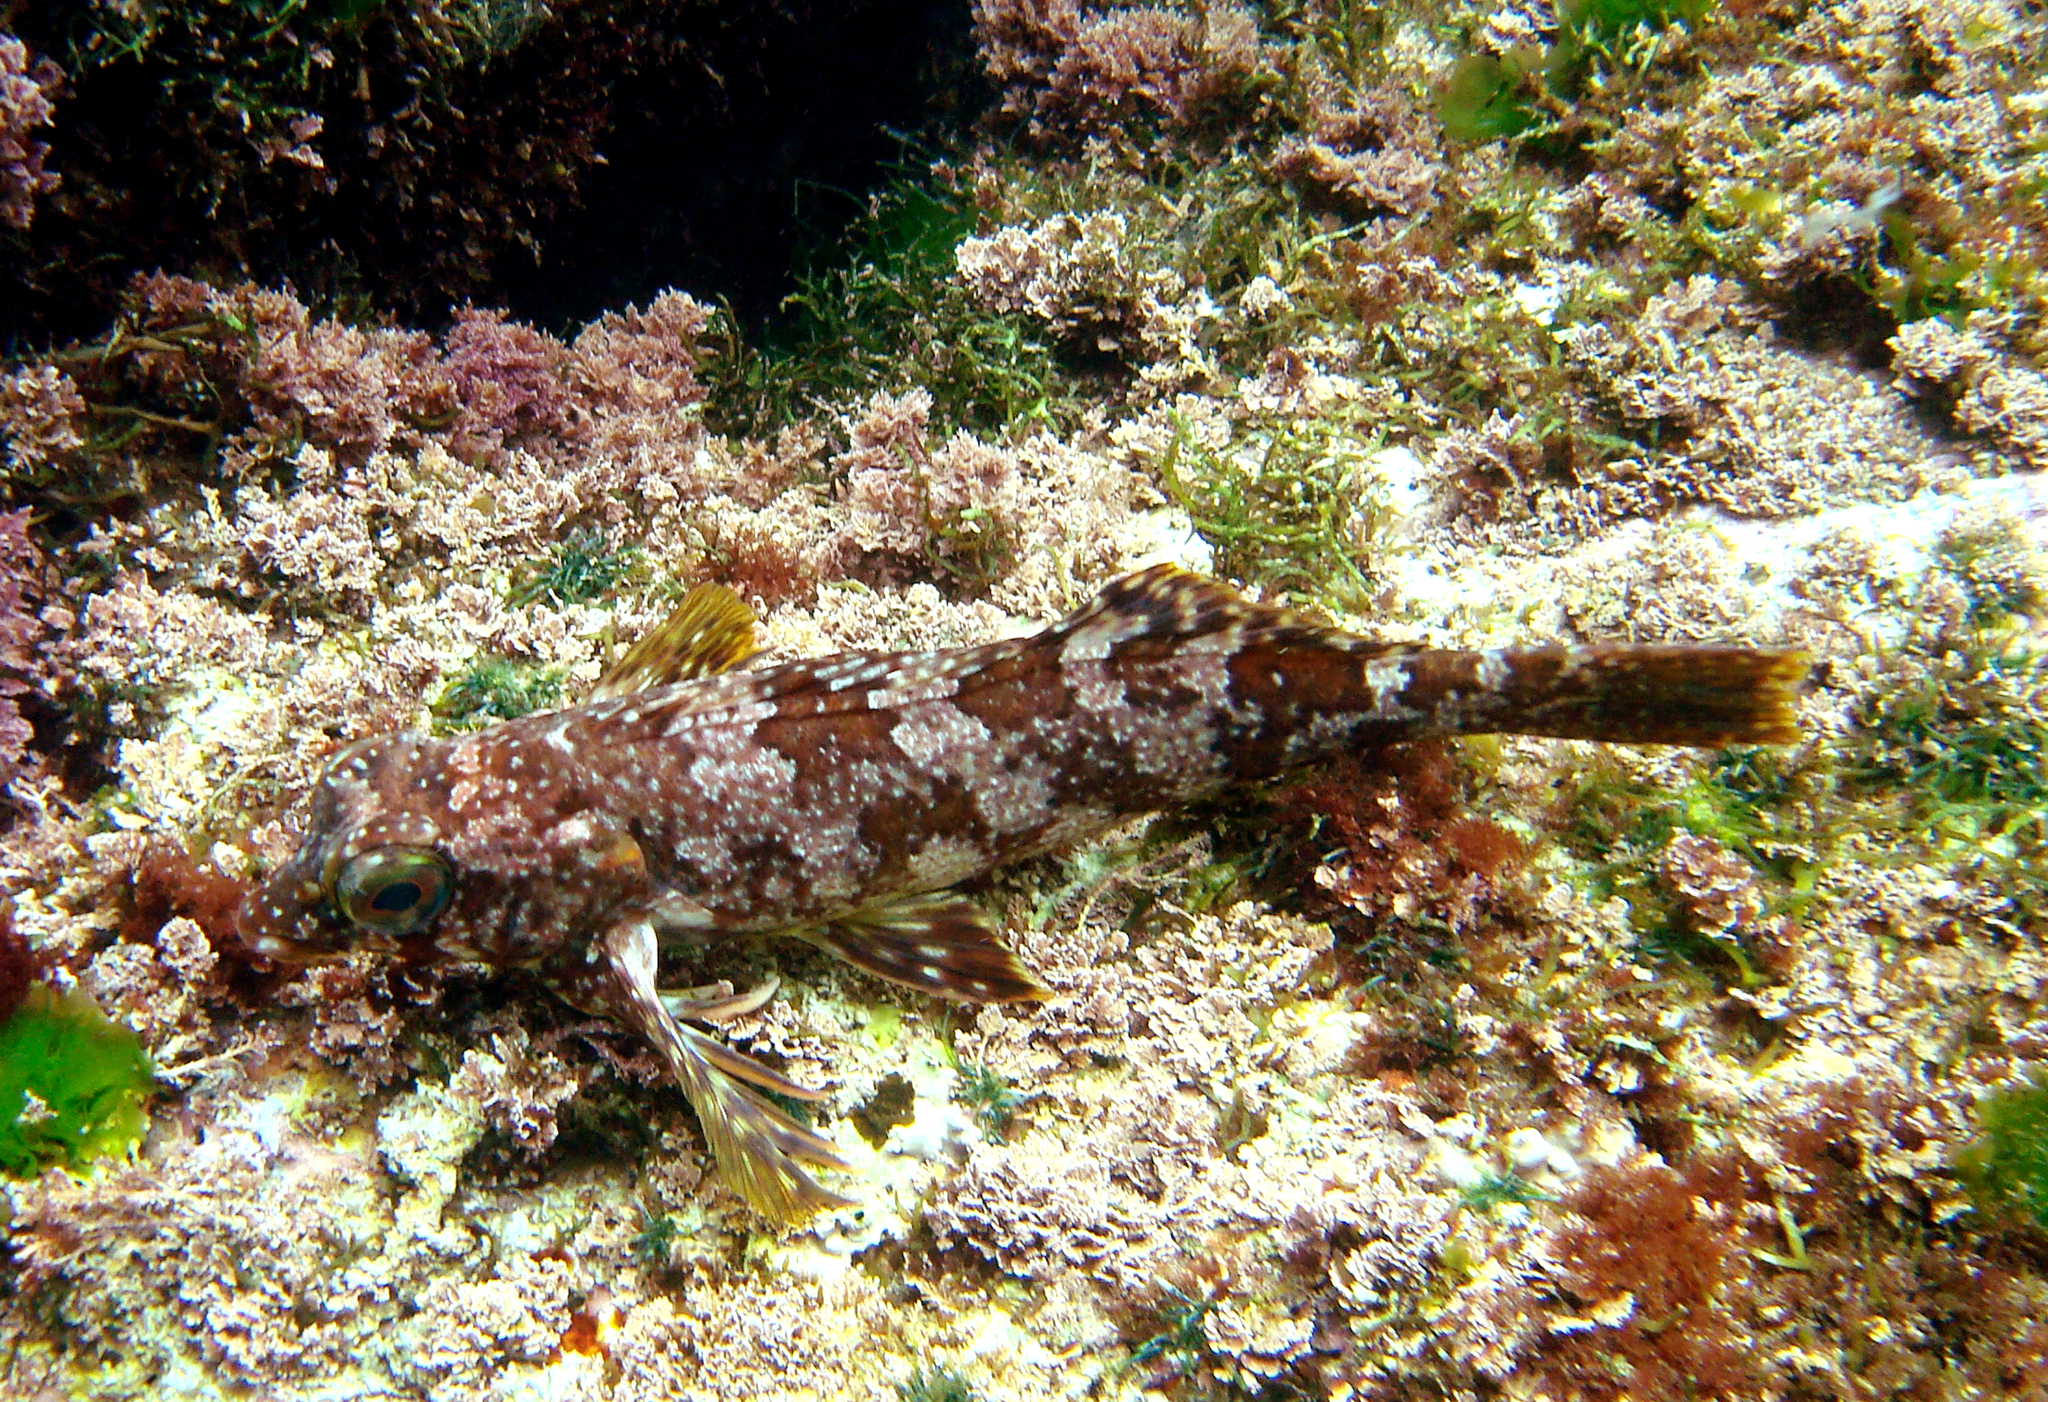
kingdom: Animalia
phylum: Chordata
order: Perciformes
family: Chironemidae
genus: Chironemus
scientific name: Chironemus bicornis
